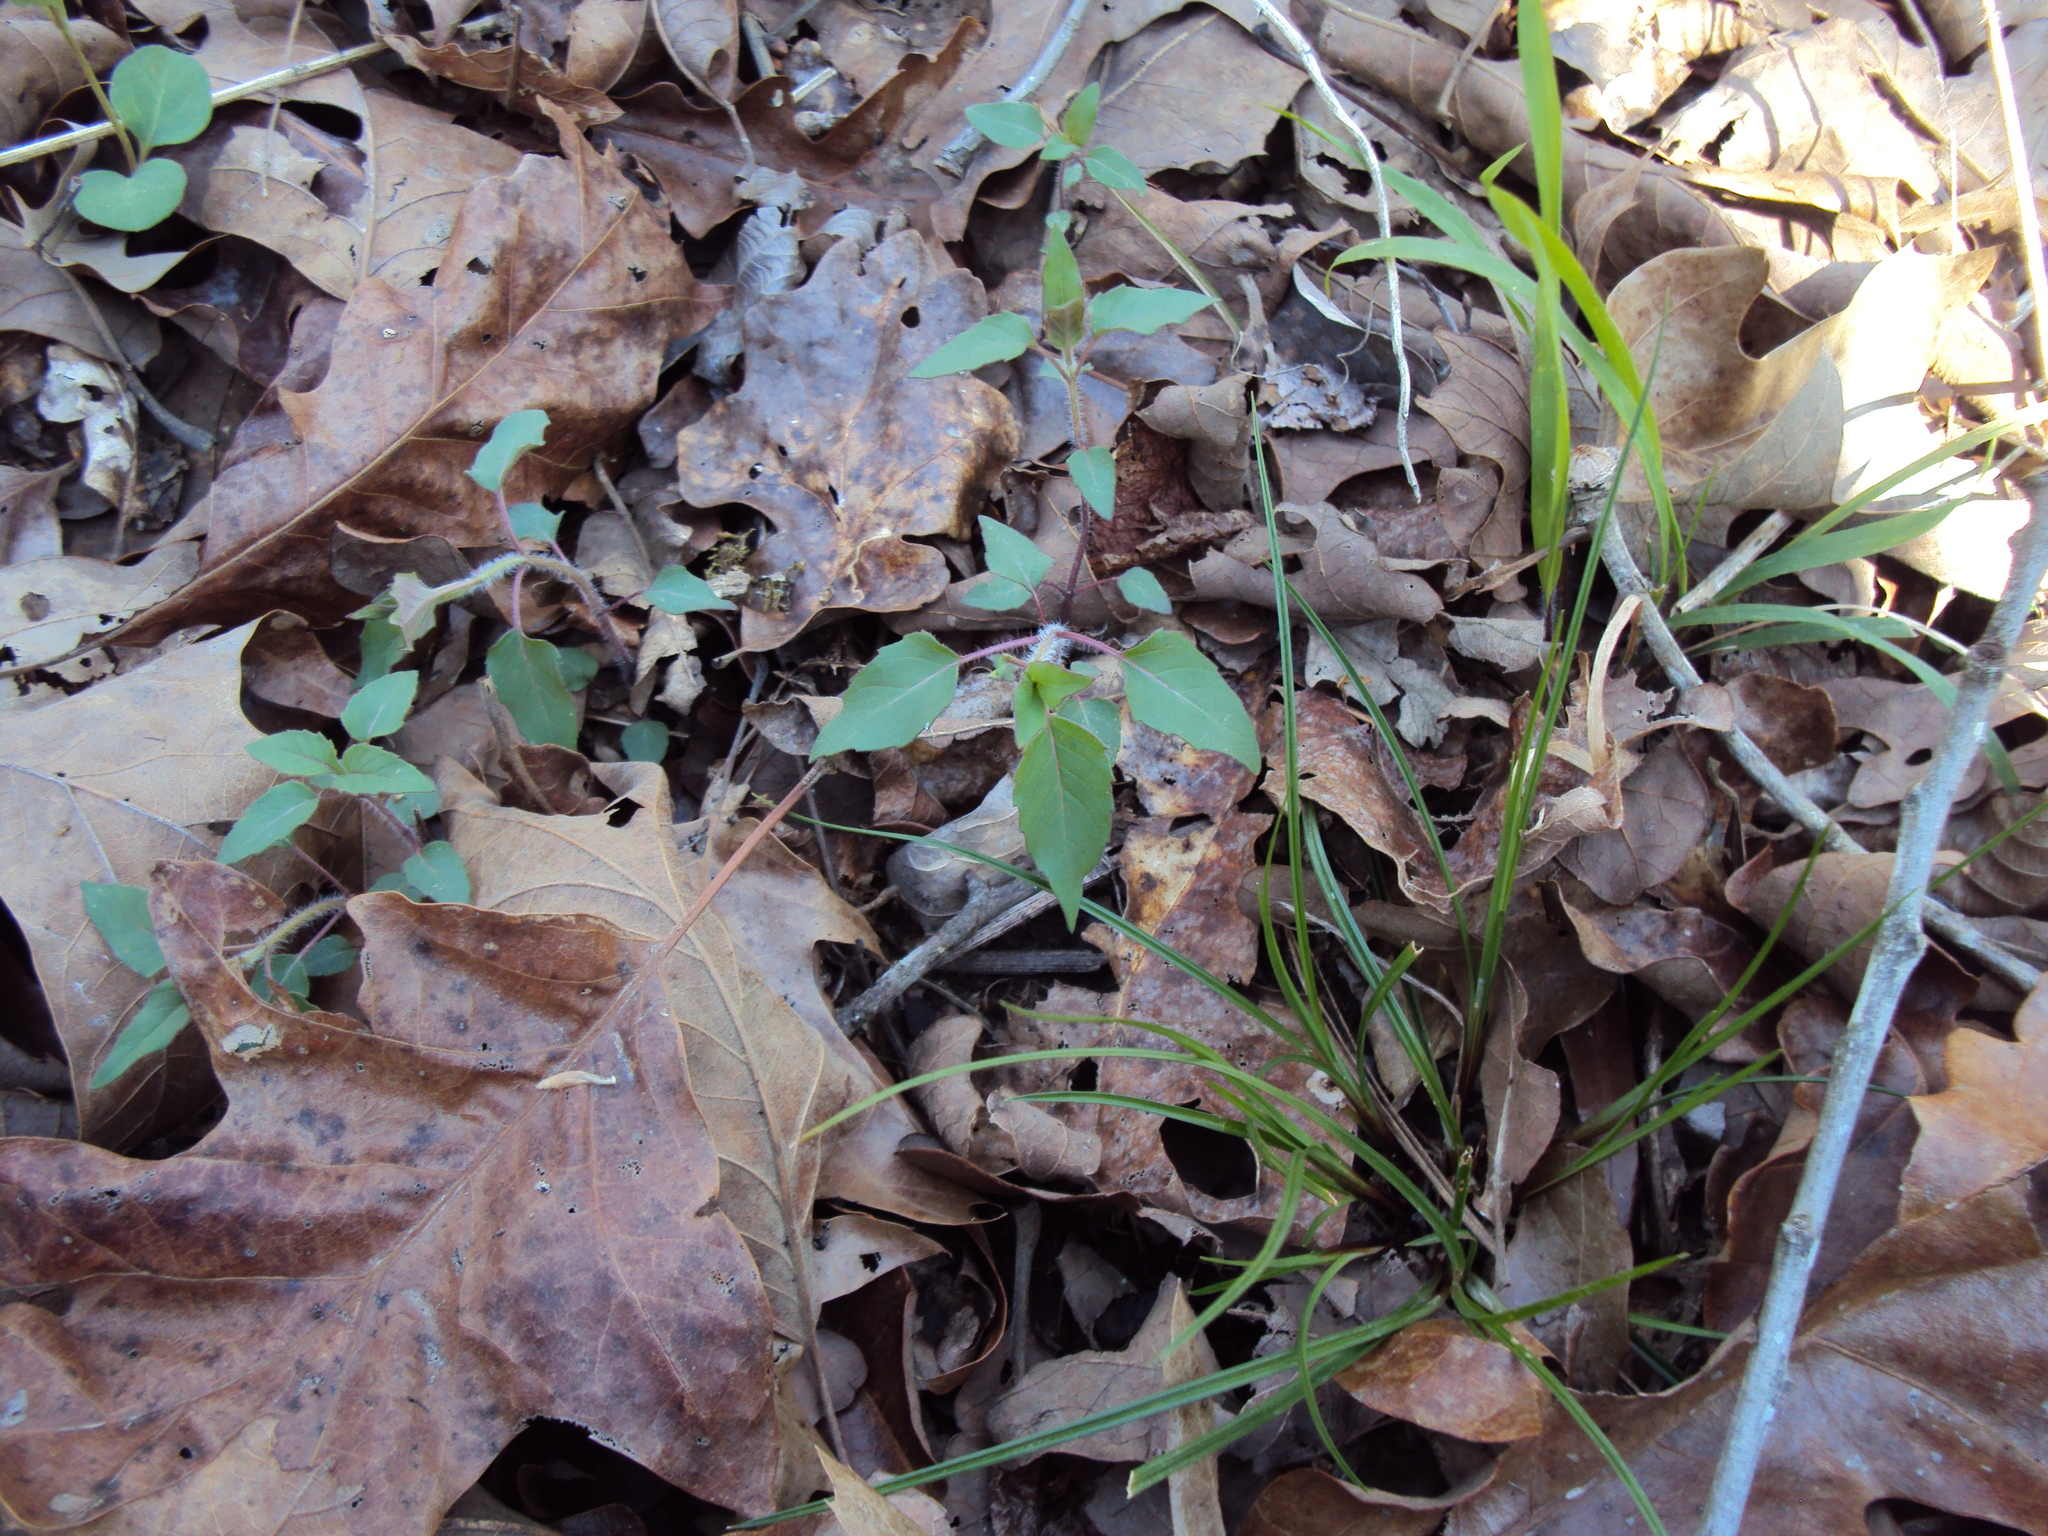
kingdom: Plantae
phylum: Tracheophyta
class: Magnoliopsida
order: Lamiales
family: Lamiaceae
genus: Monarda
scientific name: Monarda fistulosa
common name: Purple beebalm
